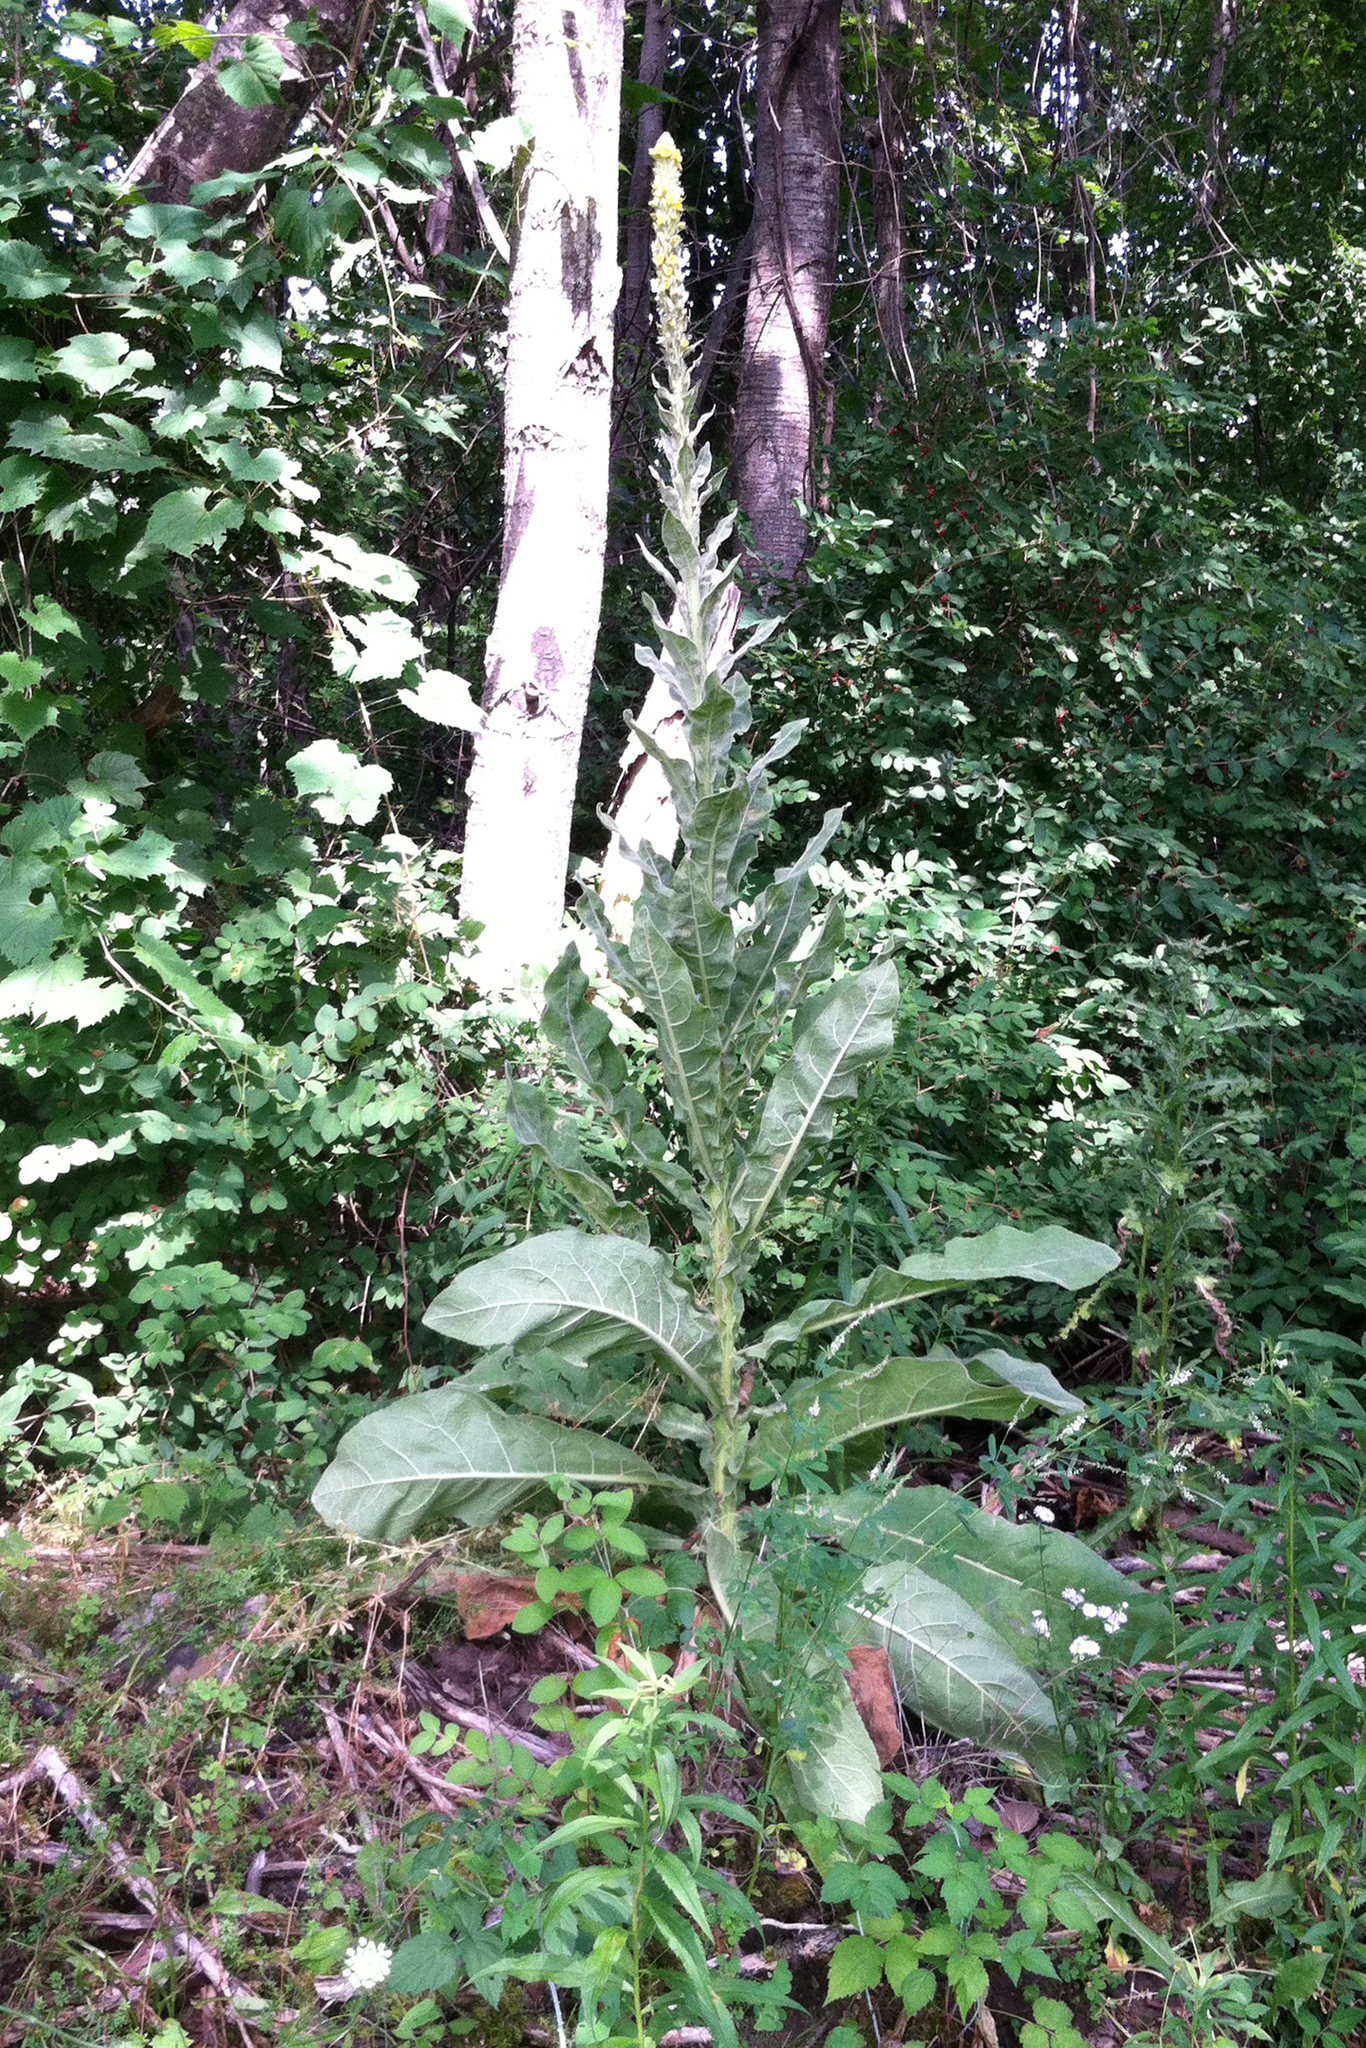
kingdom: Plantae
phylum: Tracheophyta
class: Magnoliopsida
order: Lamiales
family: Scrophulariaceae
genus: Verbascum
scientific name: Verbascum thapsus
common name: Common mullein
